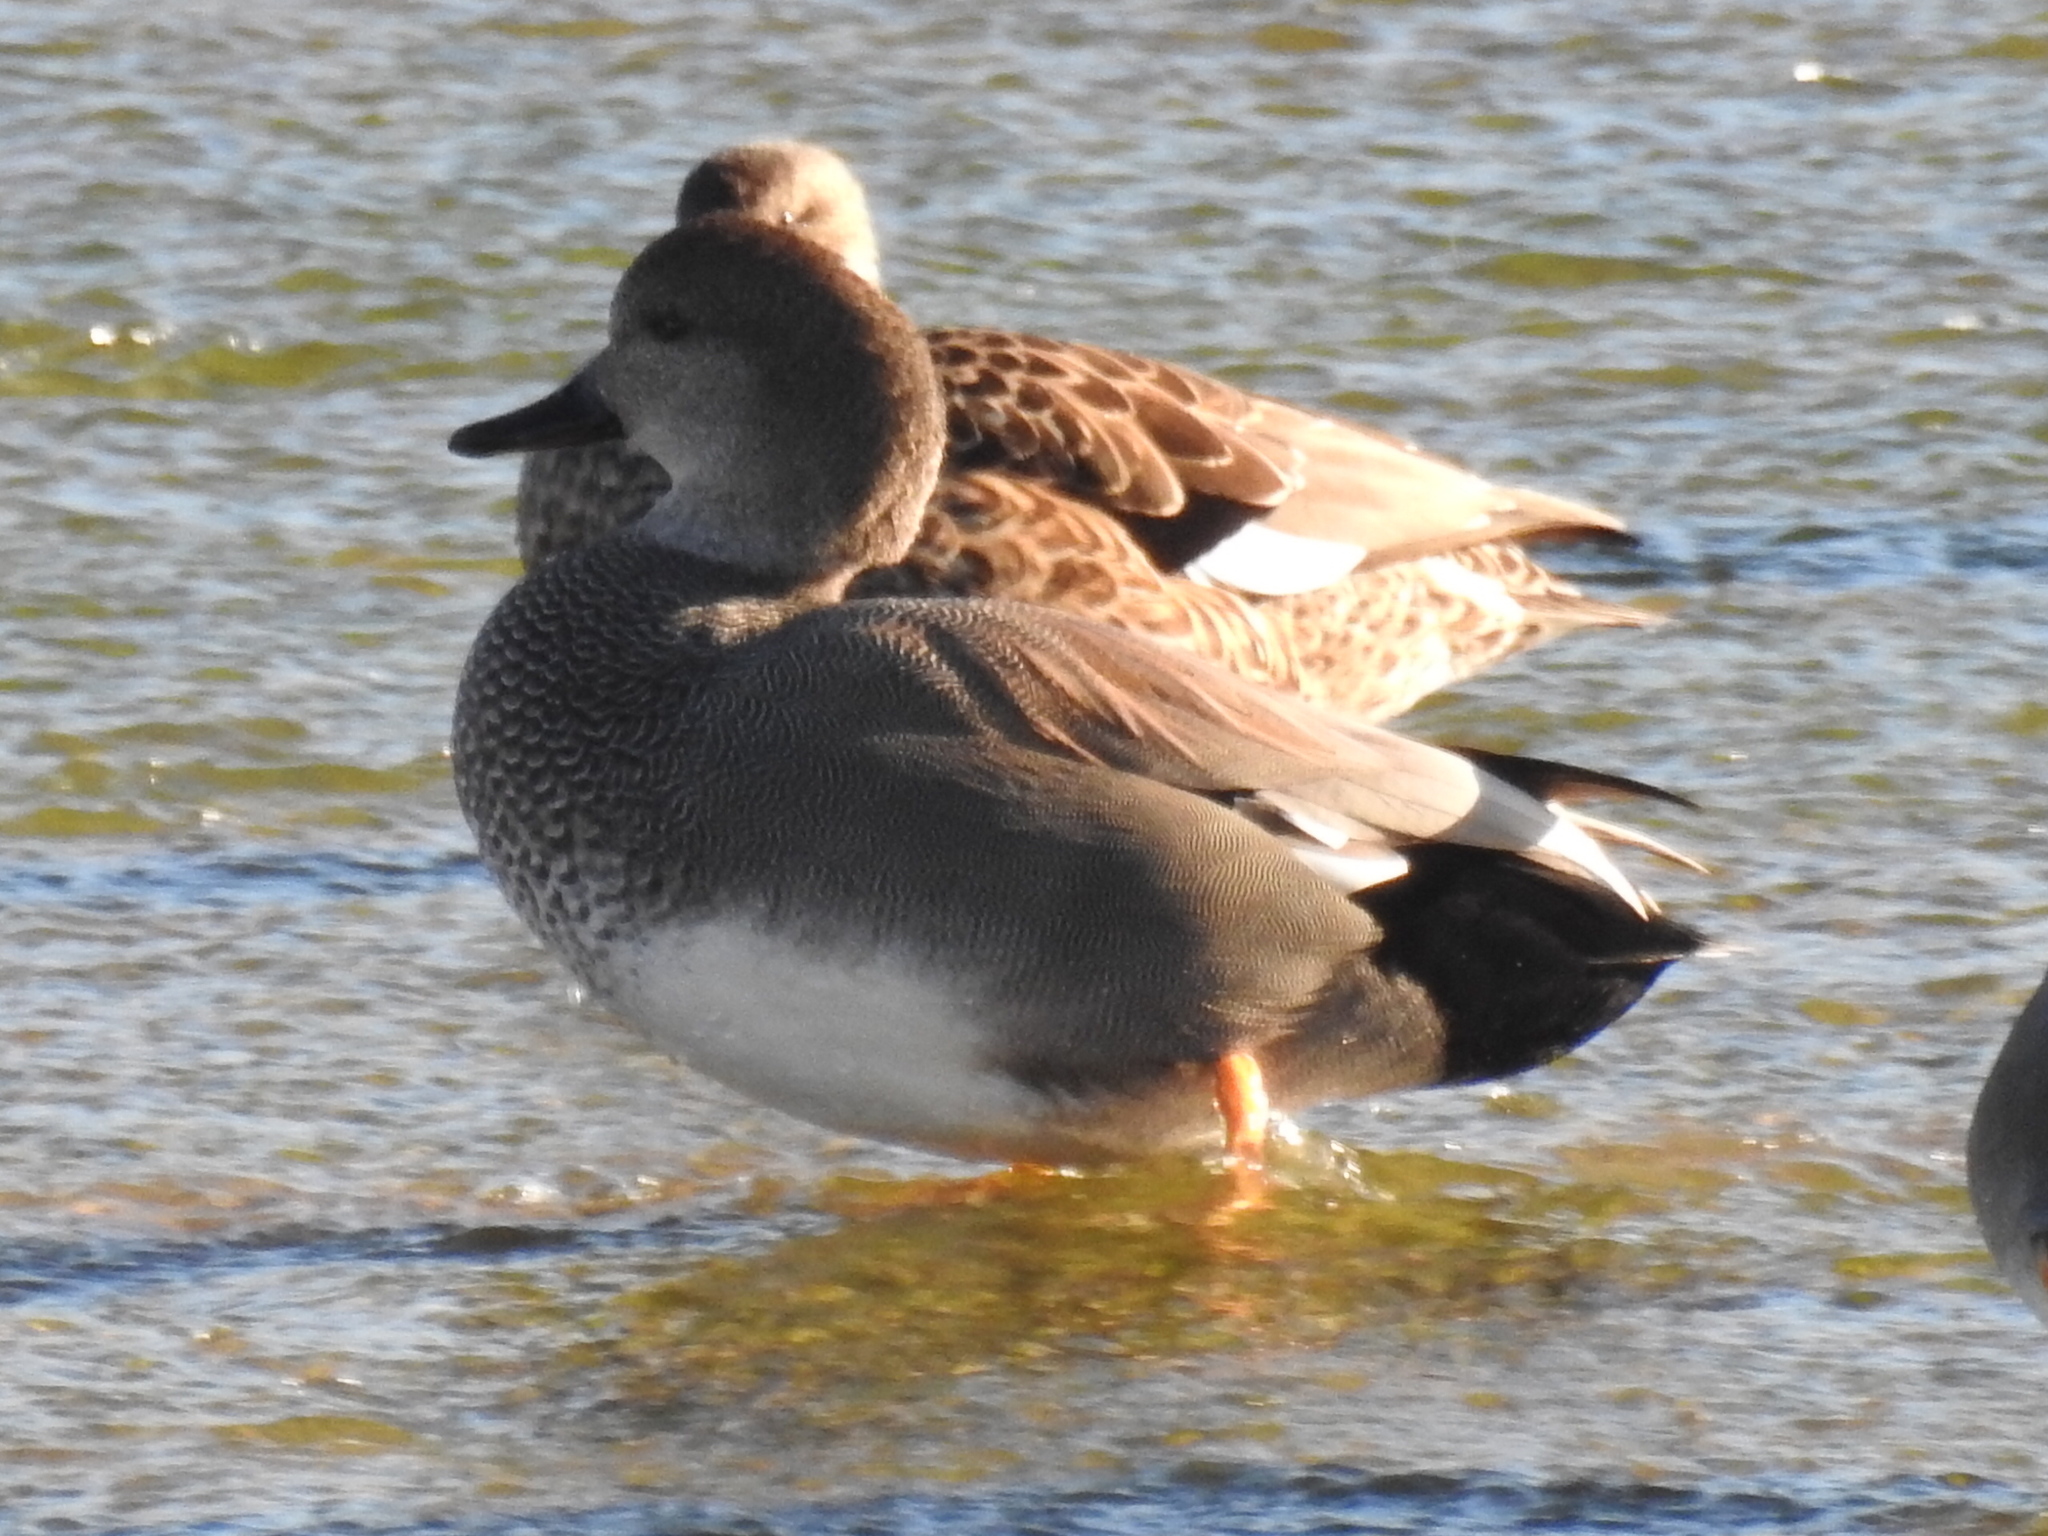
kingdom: Animalia
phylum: Chordata
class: Aves
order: Anseriformes
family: Anatidae
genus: Mareca
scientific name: Mareca strepera
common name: Gadwall
